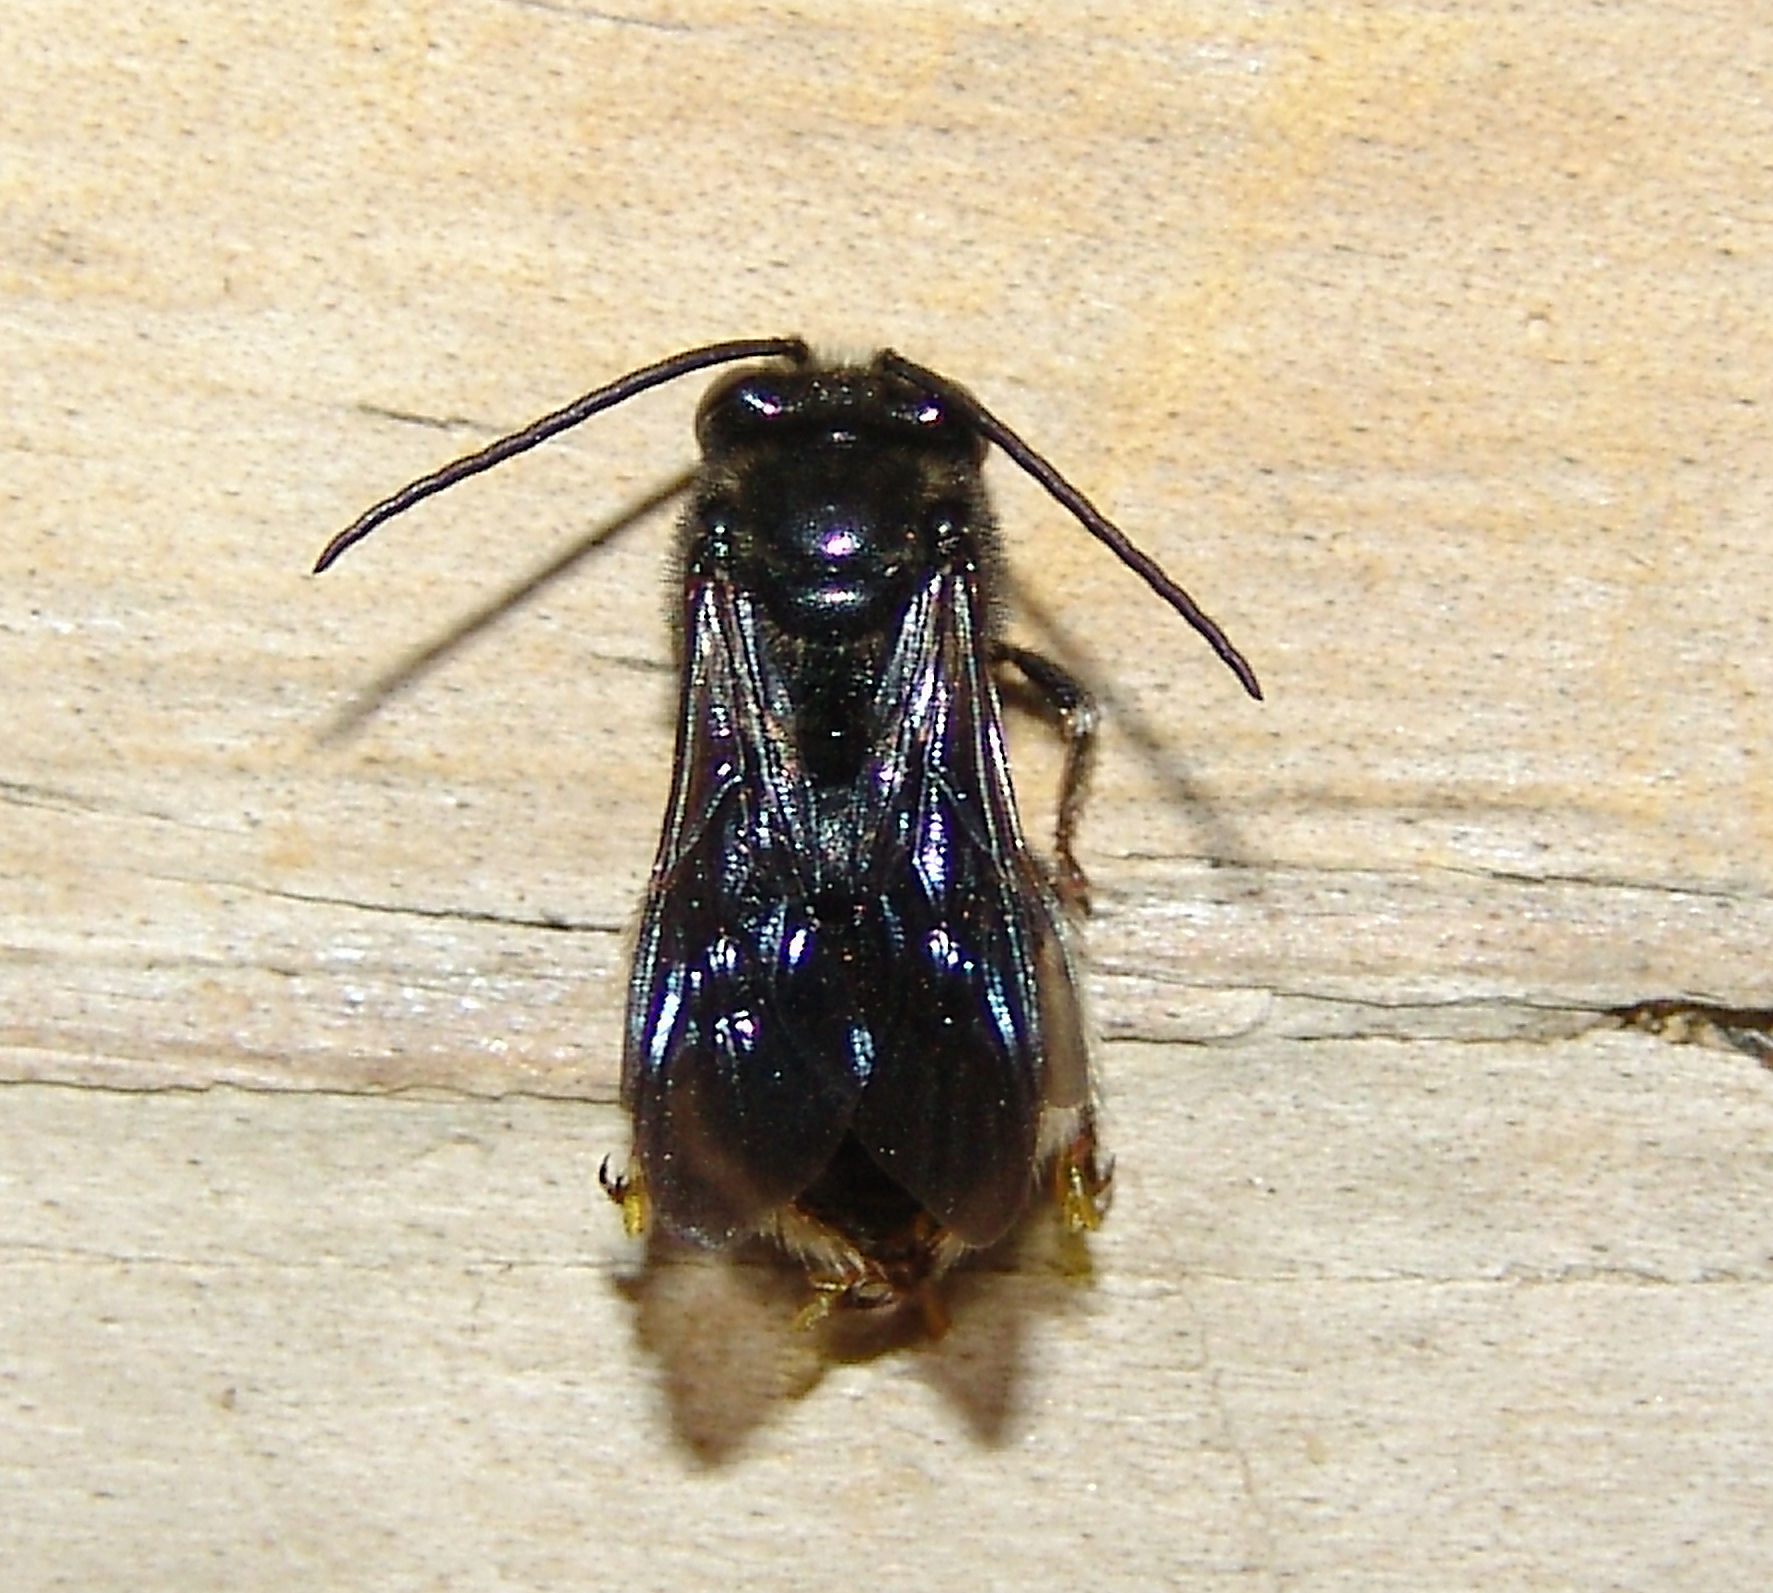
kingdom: Animalia
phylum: Arthropoda
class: Insecta
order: Hymenoptera
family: Apidae
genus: Melissodes
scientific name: Melissodes bimaculatus
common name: Two-spotted long-horned bee
